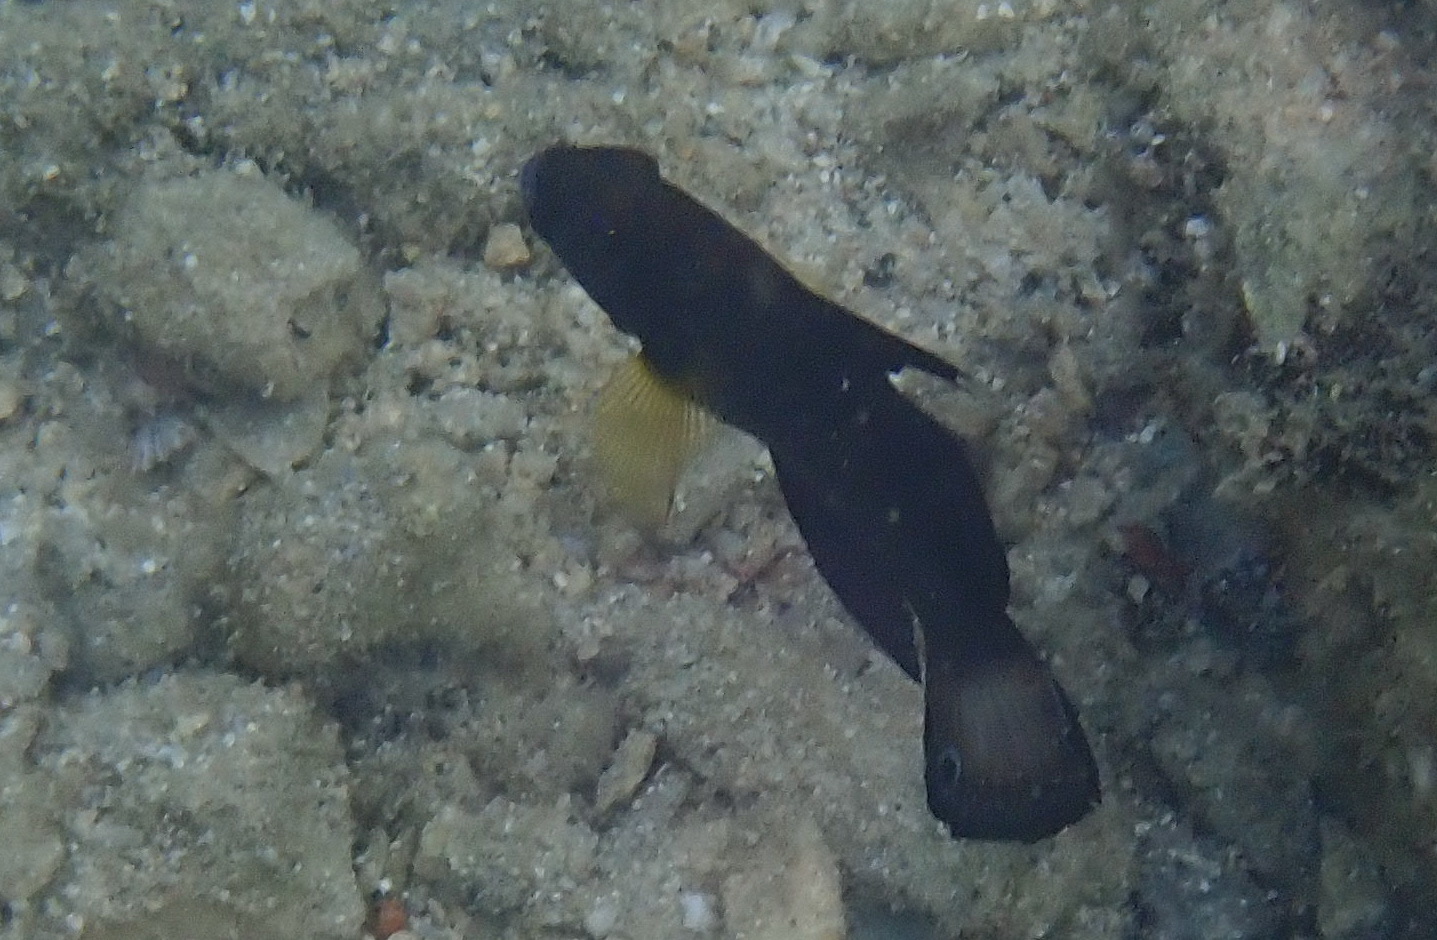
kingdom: Animalia
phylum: Chordata
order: Perciformes
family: Gobiidae
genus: Amblygobius
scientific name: Amblygobius phalaena
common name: Banded goby
